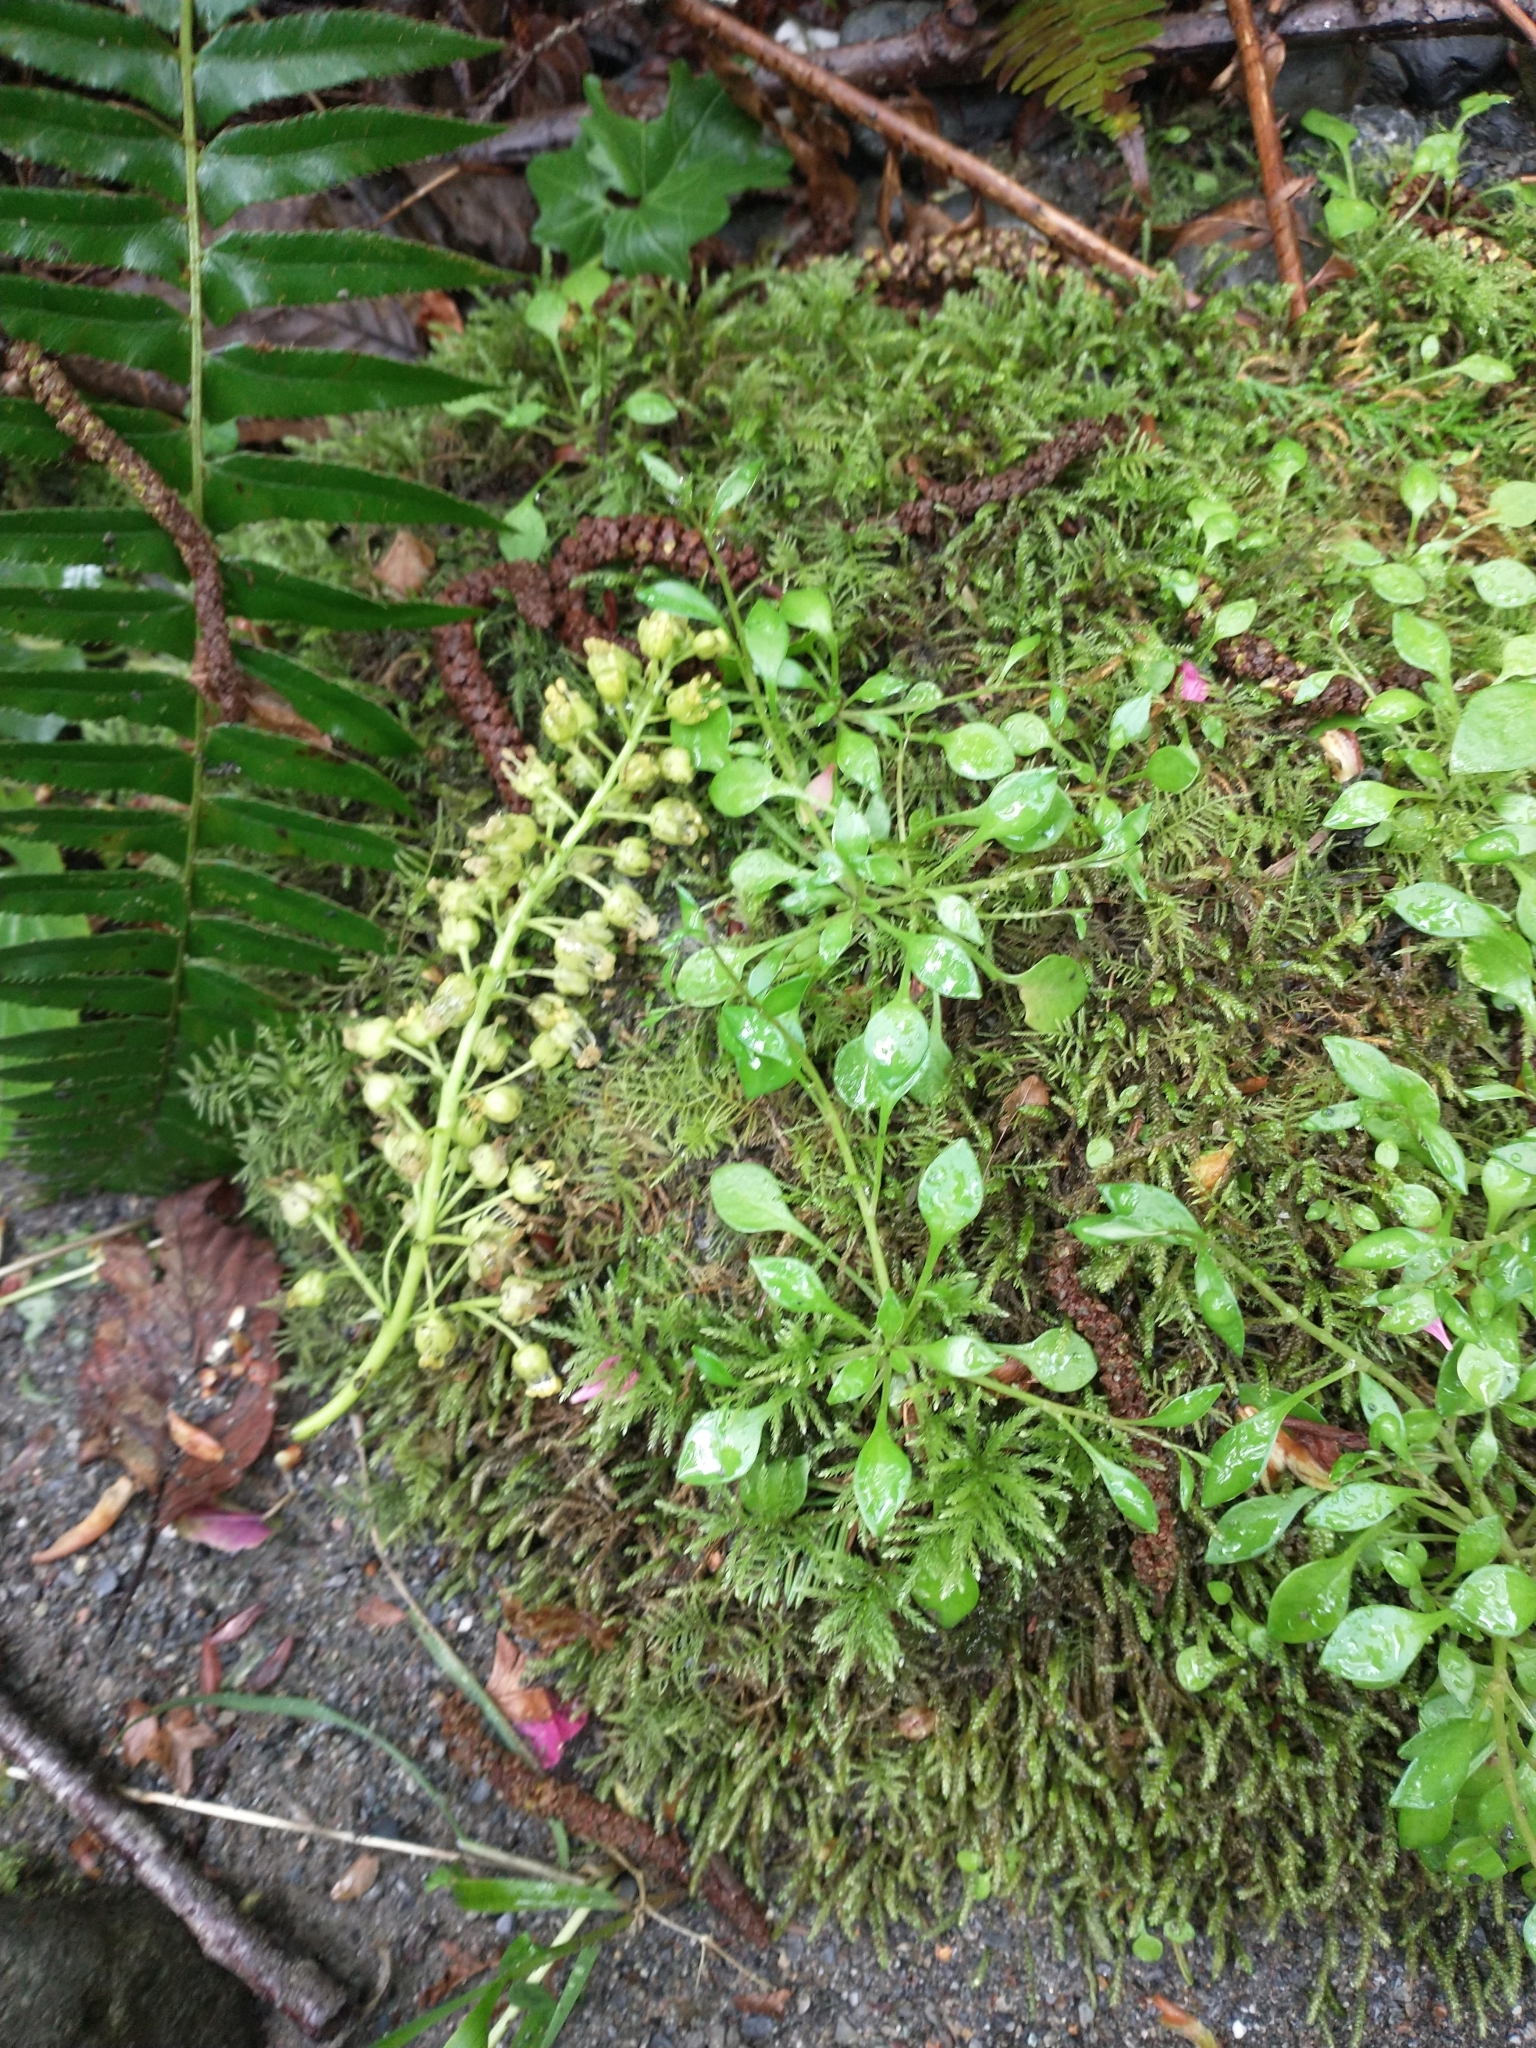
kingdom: Plantae
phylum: Tracheophyta
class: Magnoliopsida
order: Sapindales
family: Sapindaceae
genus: Acer
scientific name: Acer macrophyllum
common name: Oregon maple
